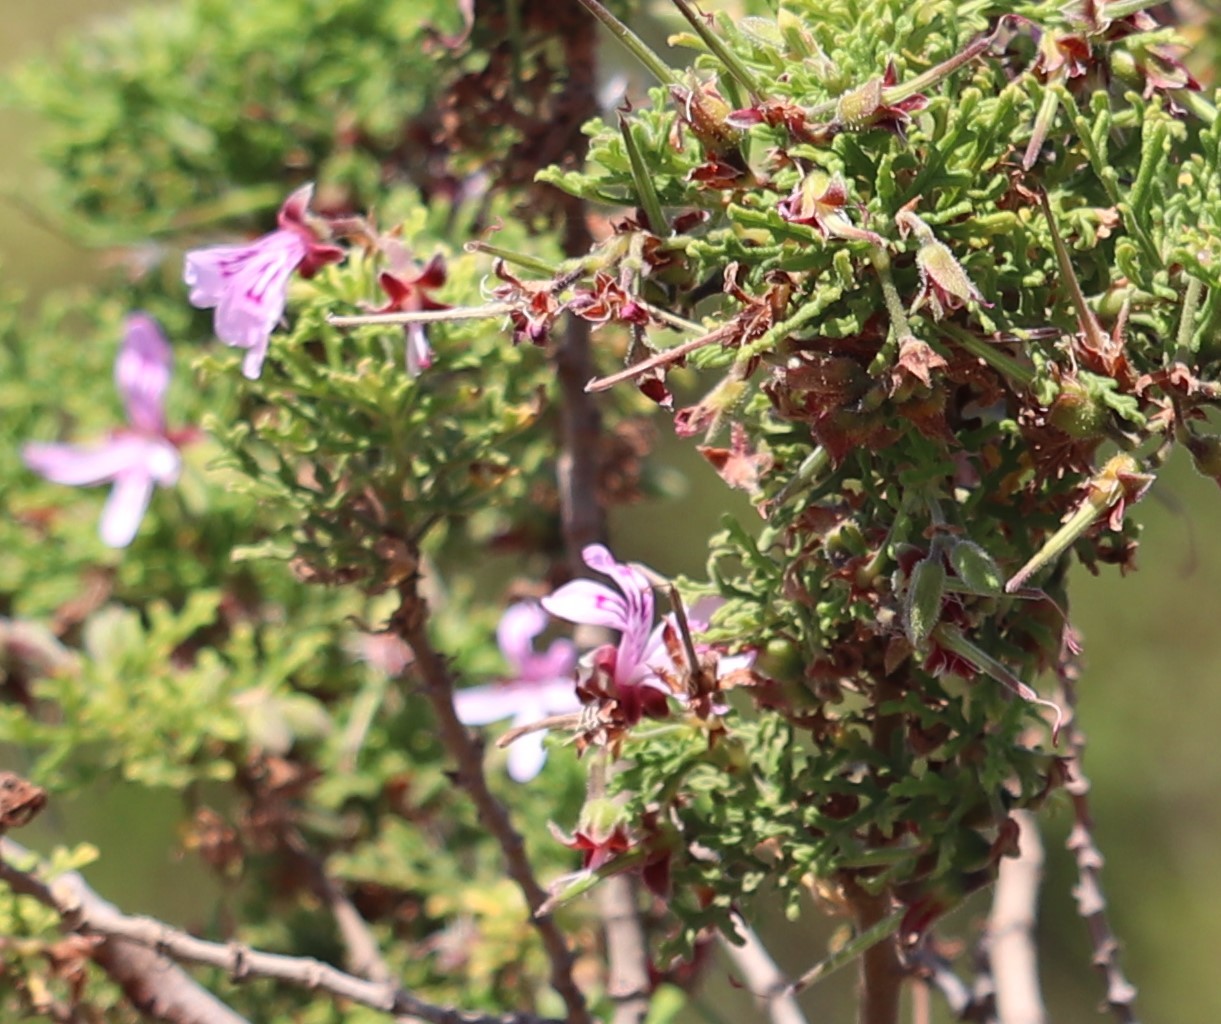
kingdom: Plantae
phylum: Tracheophyta
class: Magnoliopsida
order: Geraniales
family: Geraniaceae
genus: Pelargonium
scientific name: Pelargonium radens
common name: Rasp-leaf pelargonium
